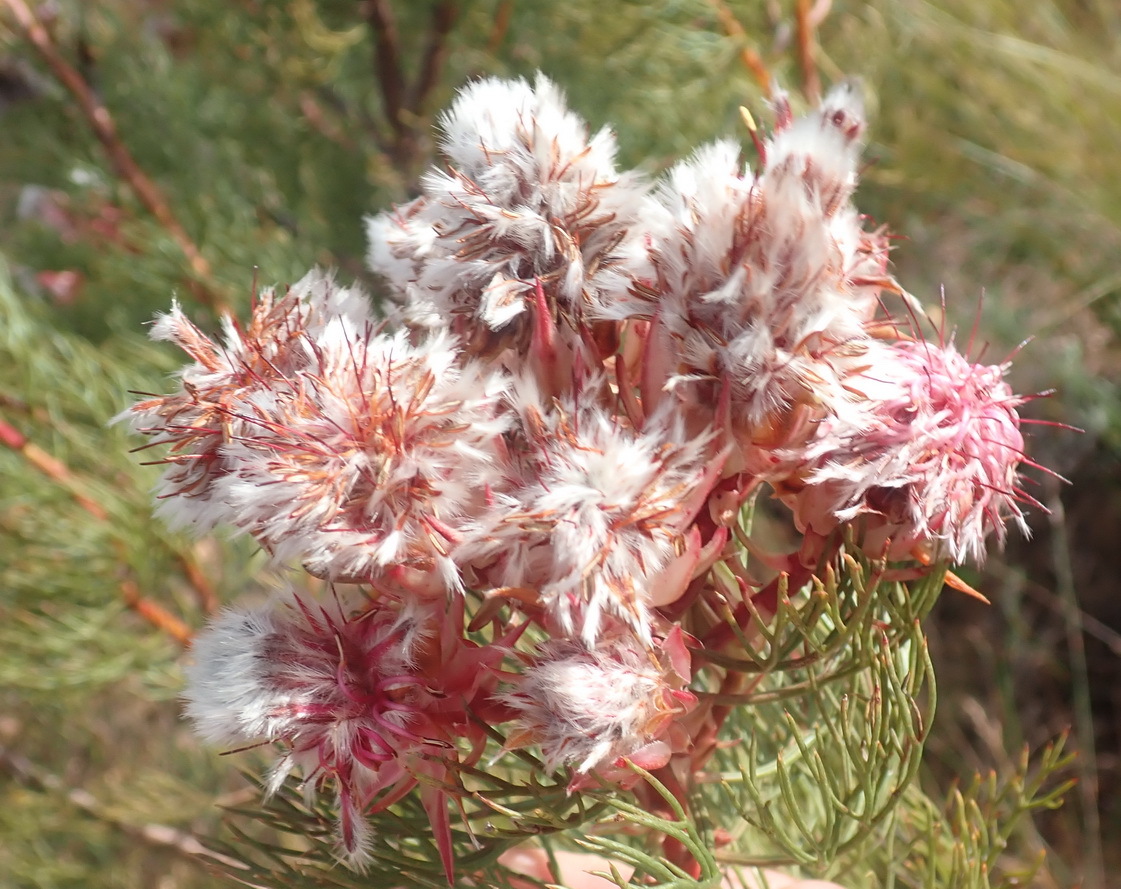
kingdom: Plantae
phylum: Tracheophyta
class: Magnoliopsida
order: Proteales
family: Proteaceae
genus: Serruria
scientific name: Serruria rosea
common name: Rose spiderhead
